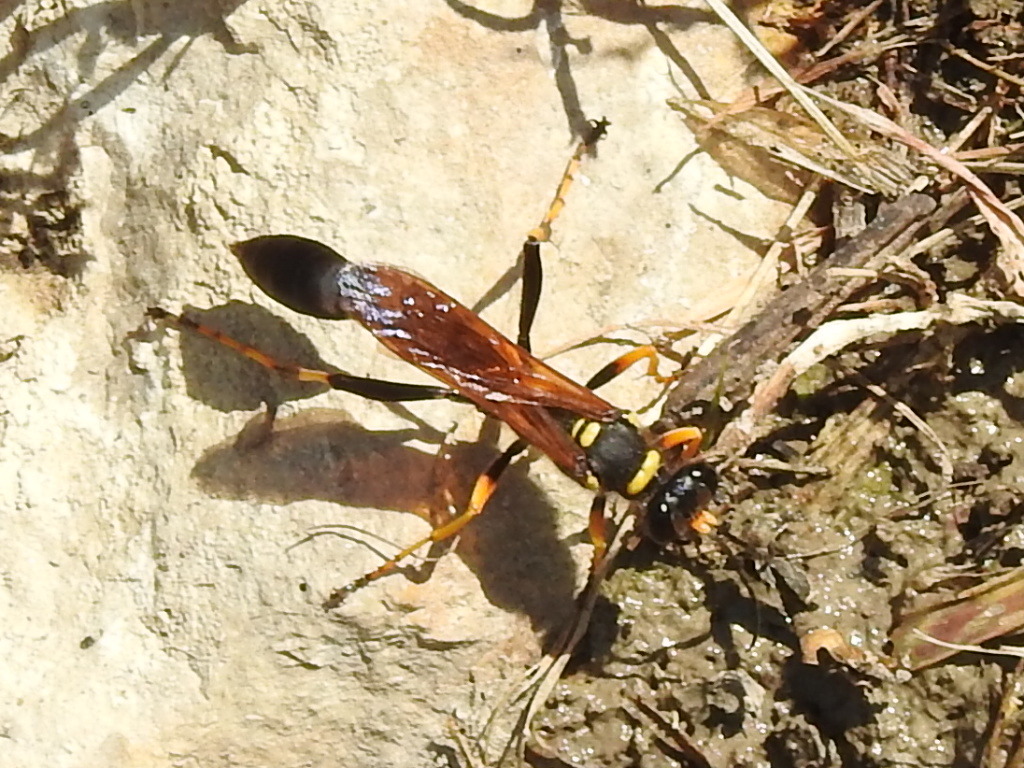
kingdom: Animalia
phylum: Arthropoda
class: Insecta
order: Hymenoptera
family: Sphecidae
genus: Sceliphron
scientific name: Sceliphron caementarium
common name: Mud dauber
